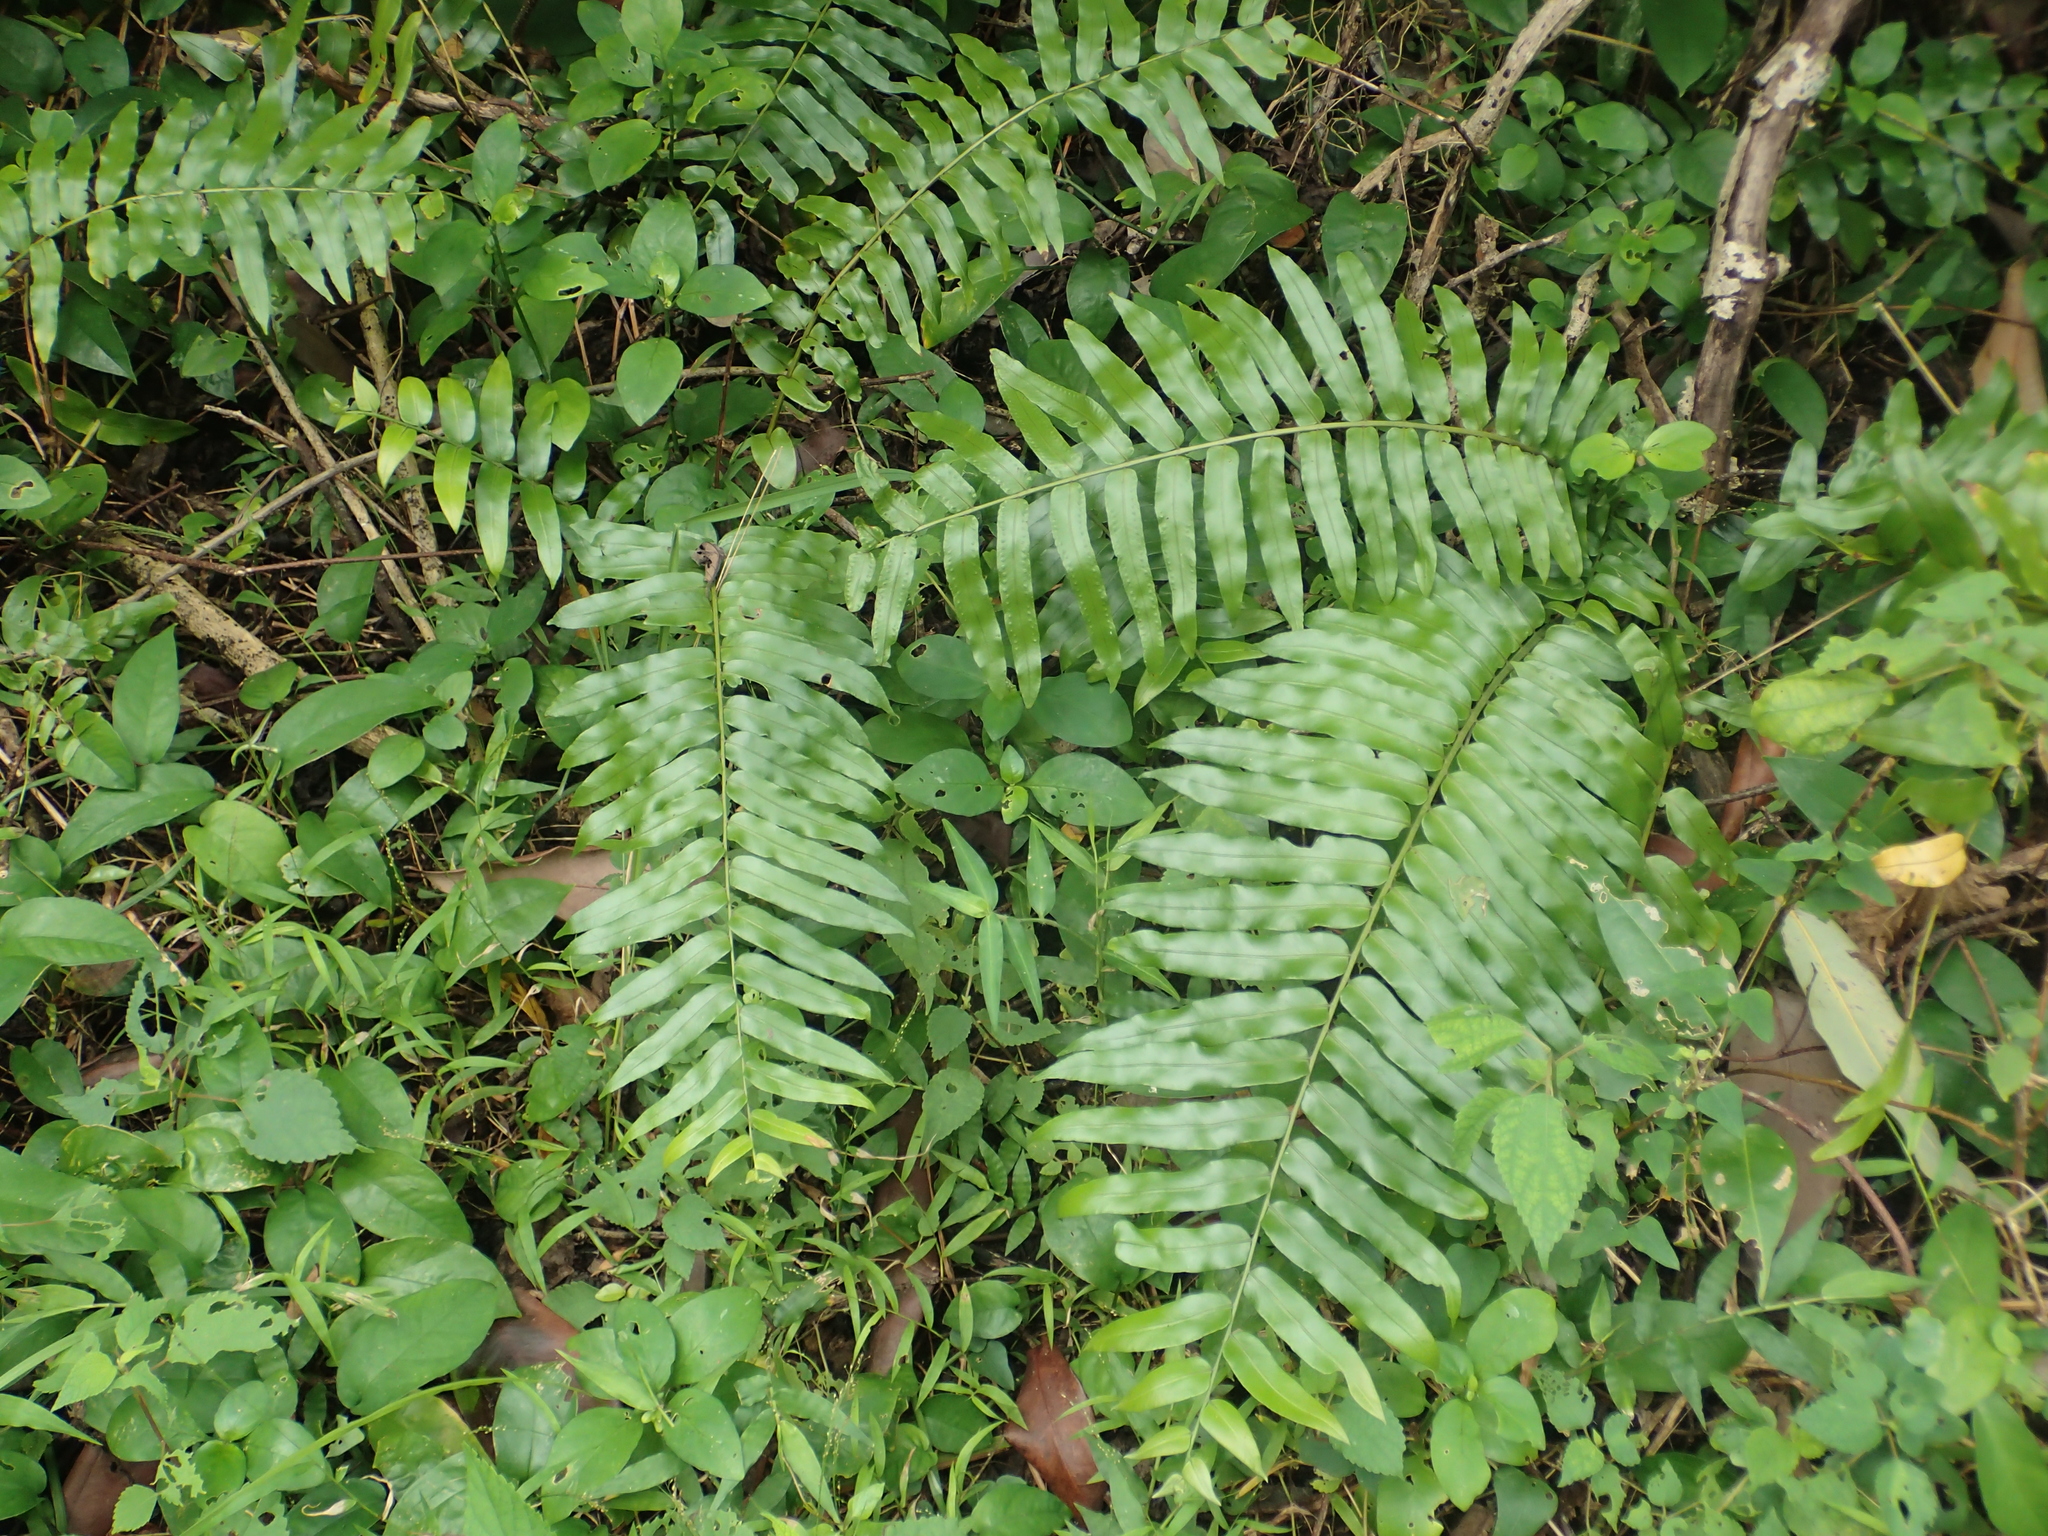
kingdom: Plantae
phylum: Tracheophyta
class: Polypodiopsida
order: Polypodiales
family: Nephrolepidaceae
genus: Nephrolepis
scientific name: Nephrolepis biserrata
